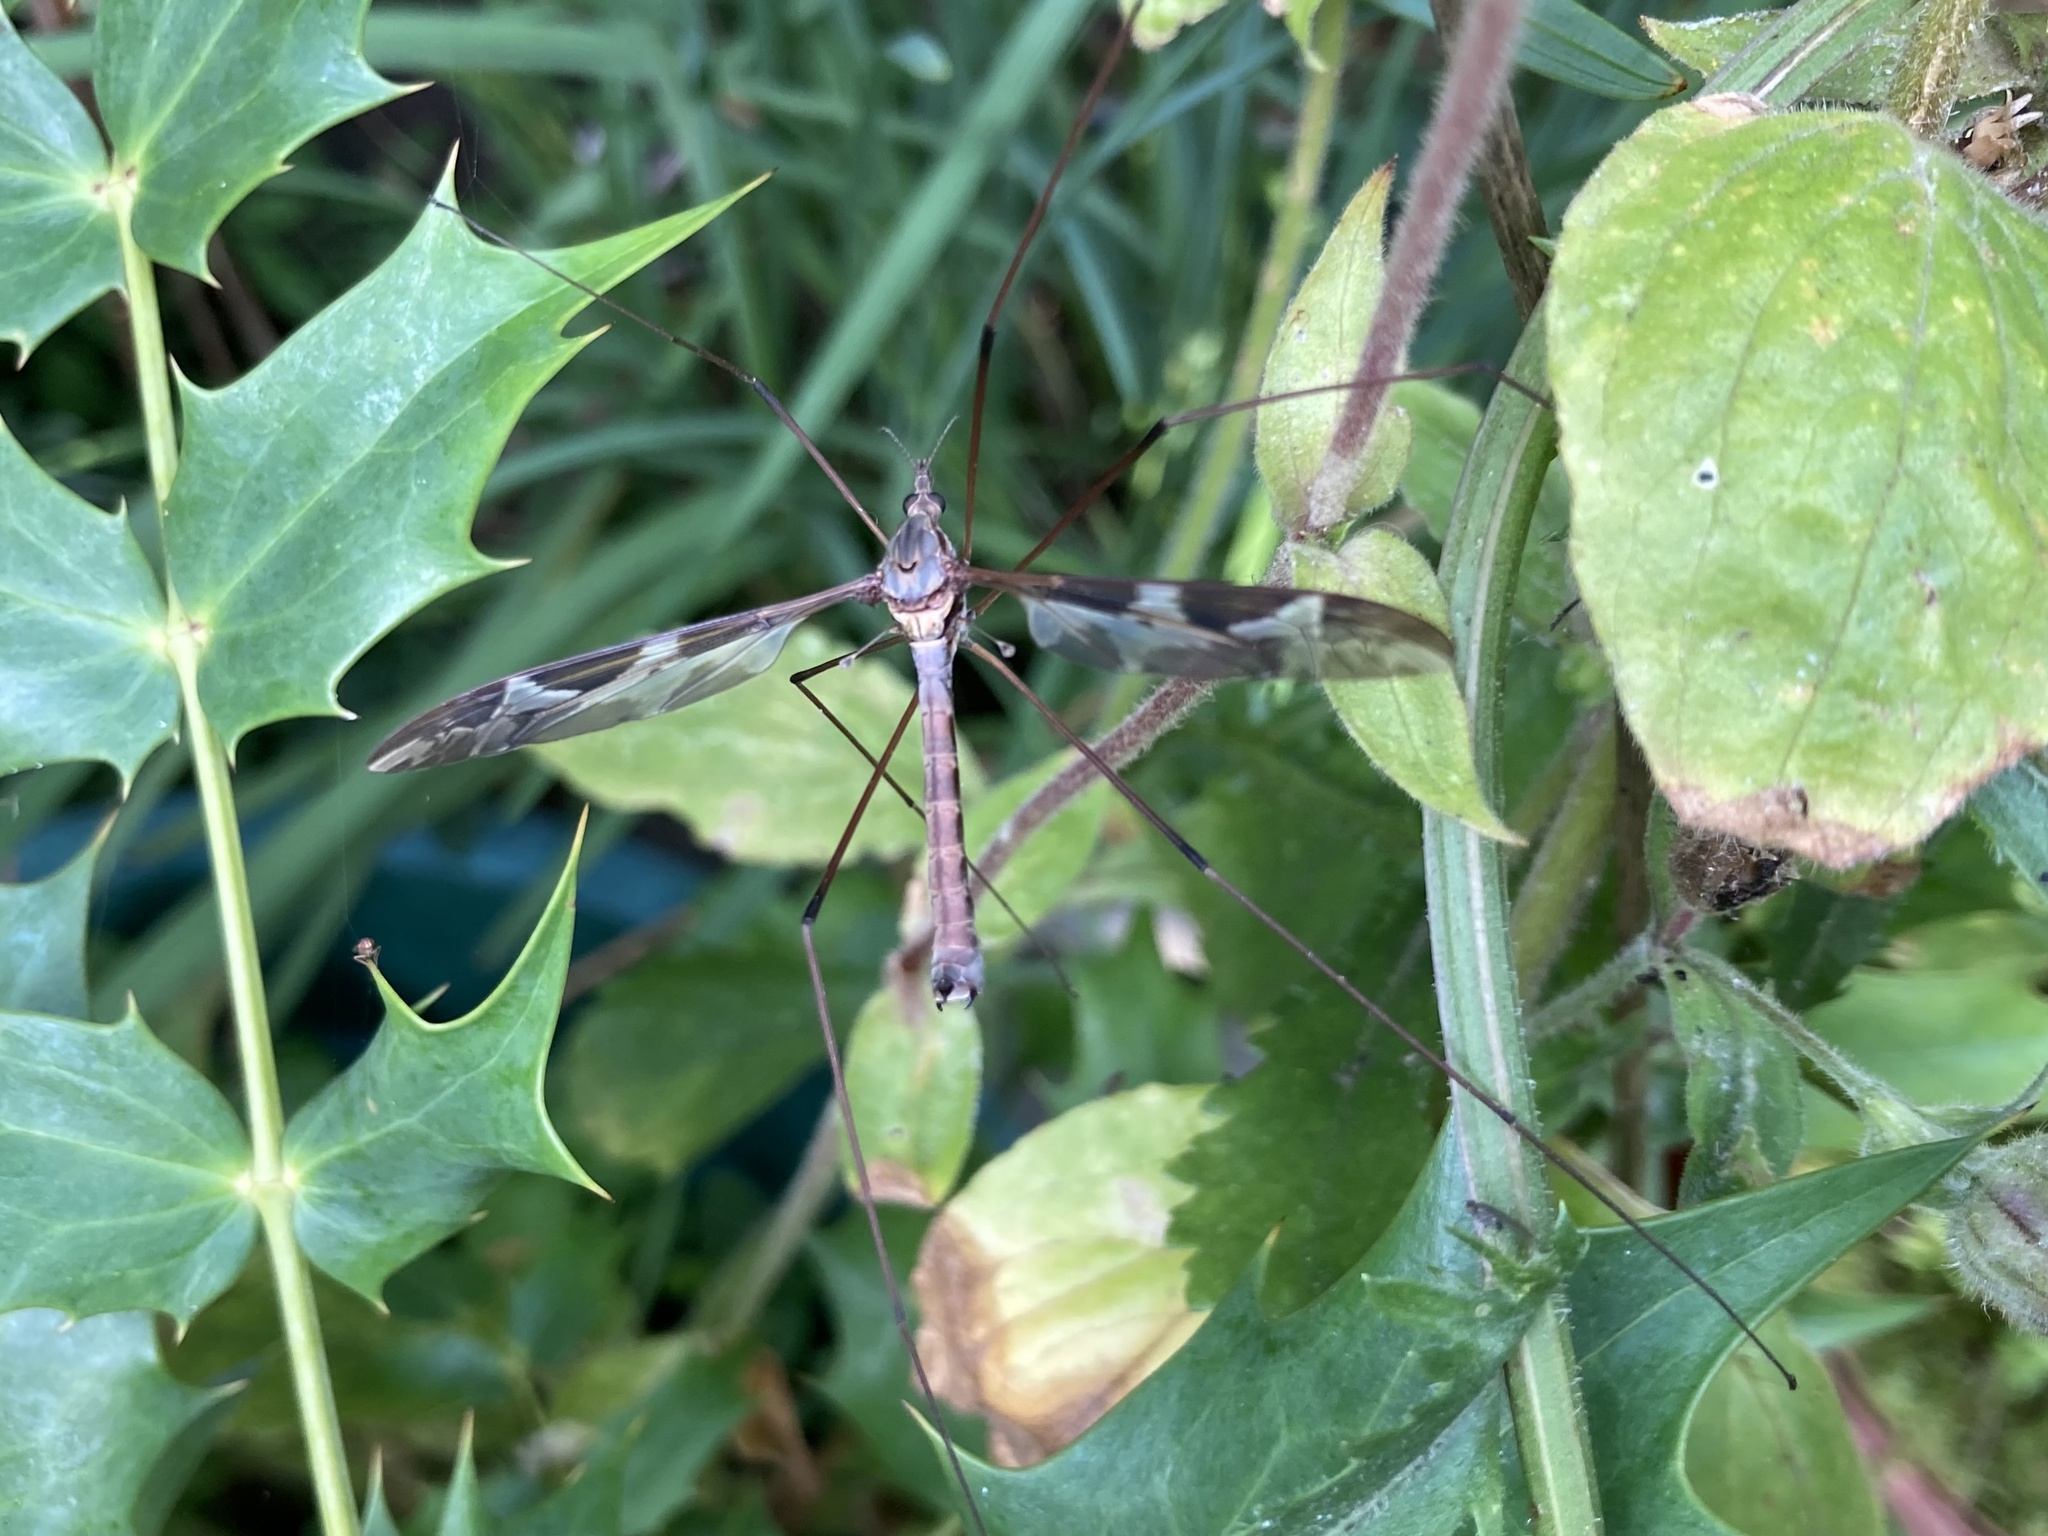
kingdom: Animalia
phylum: Arthropoda
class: Insecta
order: Diptera
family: Tipulidae
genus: Tipula
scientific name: Tipula maxima
